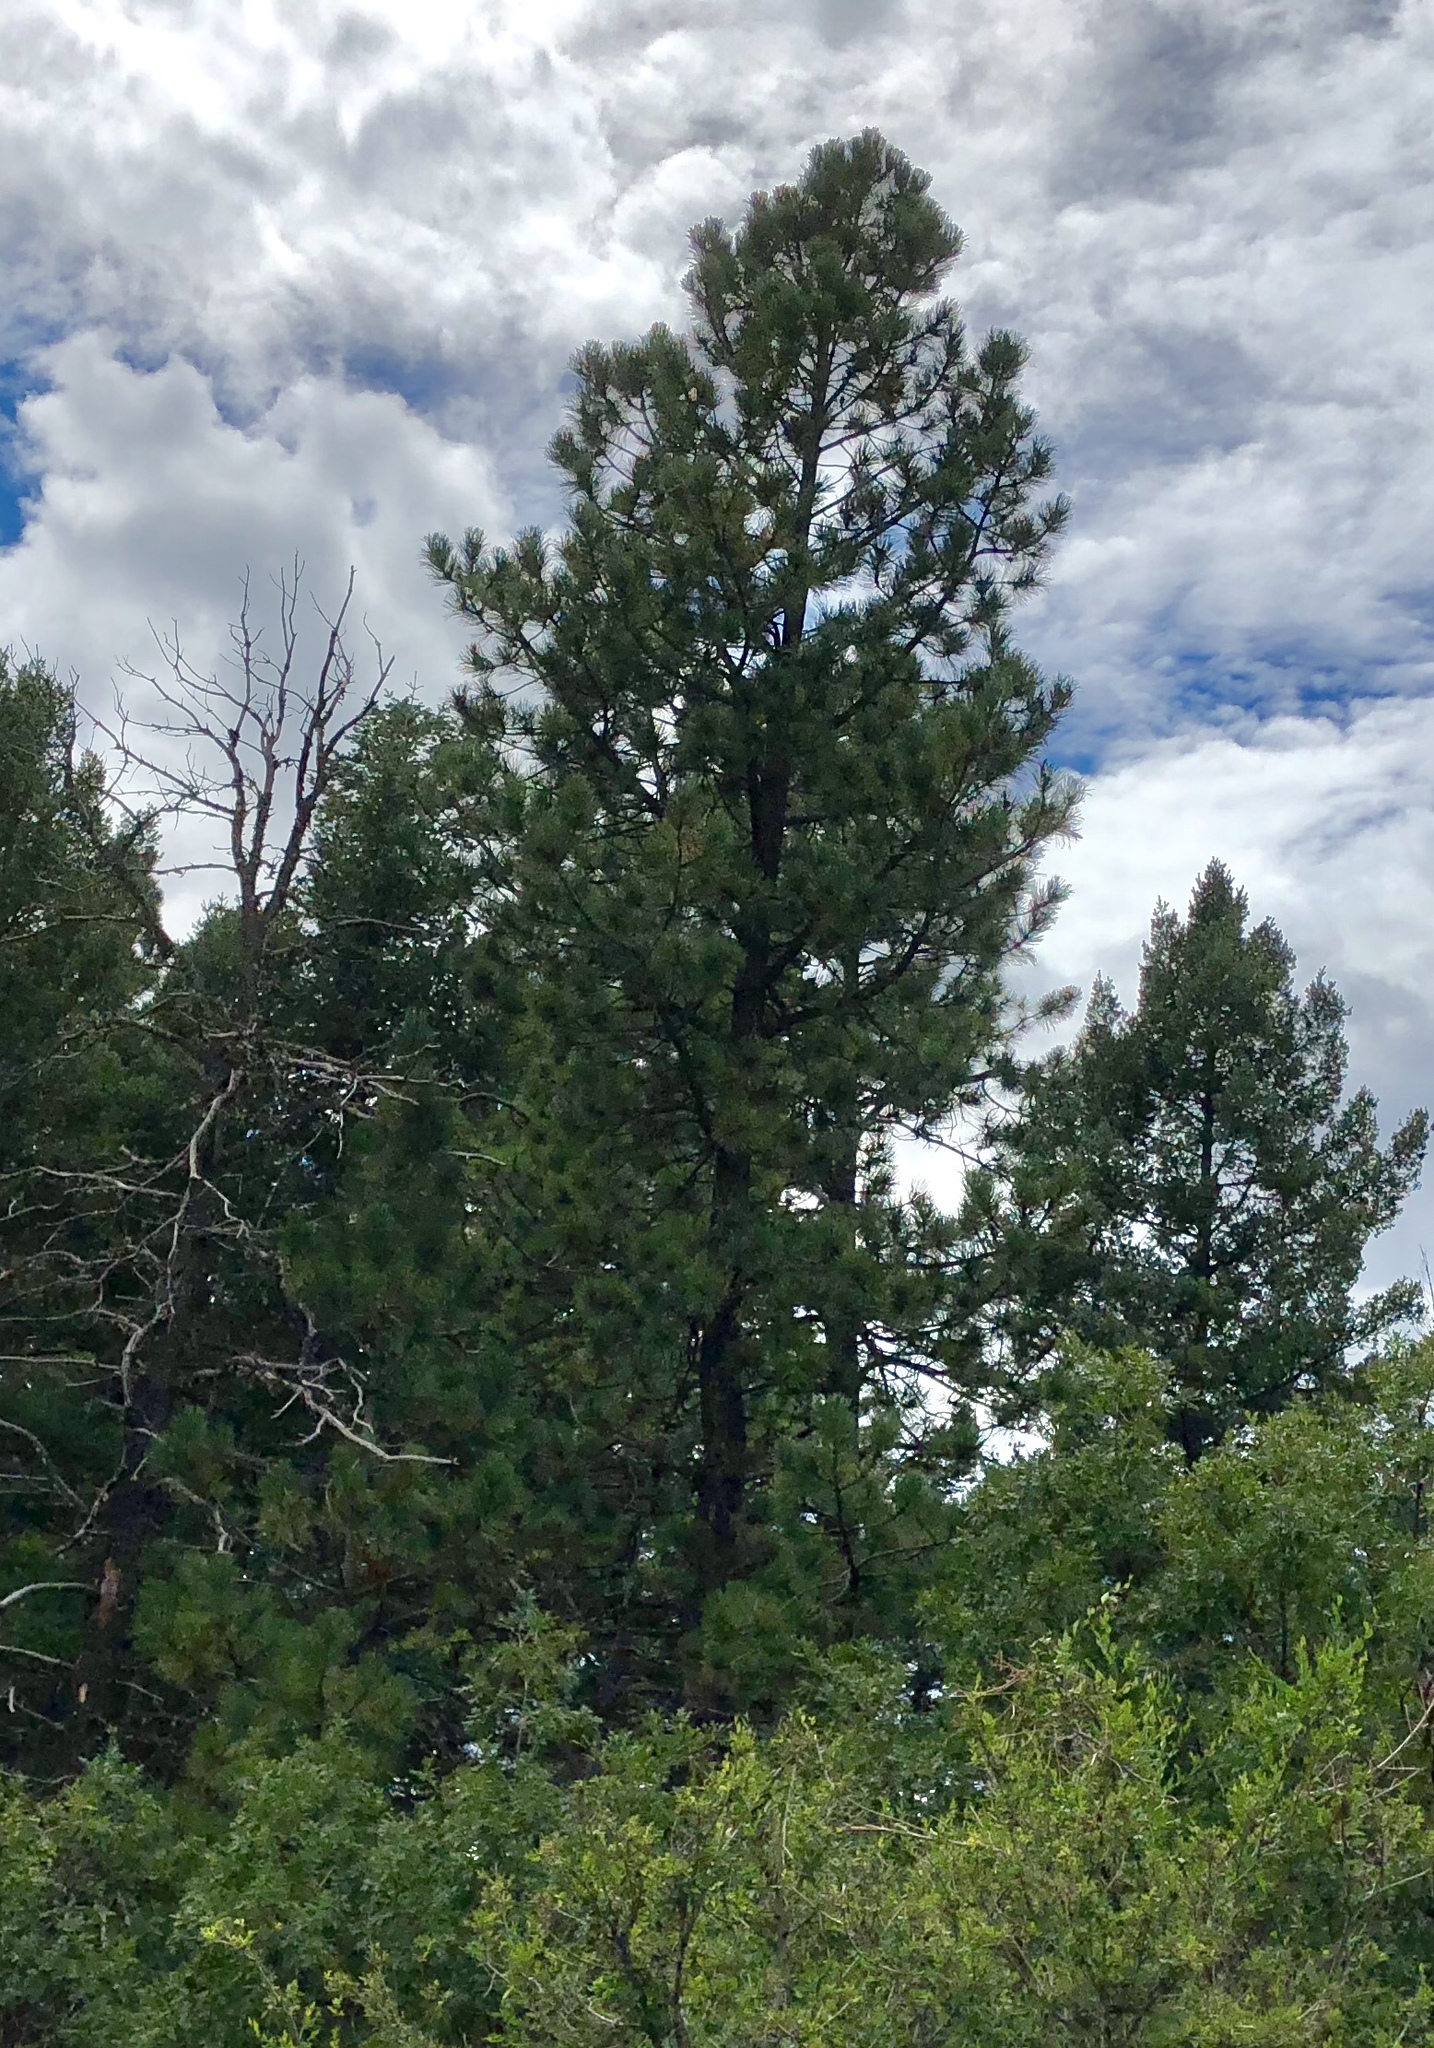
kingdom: Plantae
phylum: Tracheophyta
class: Pinopsida
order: Pinales
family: Pinaceae
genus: Pinus
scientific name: Pinus ponderosa
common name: Western yellow-pine
